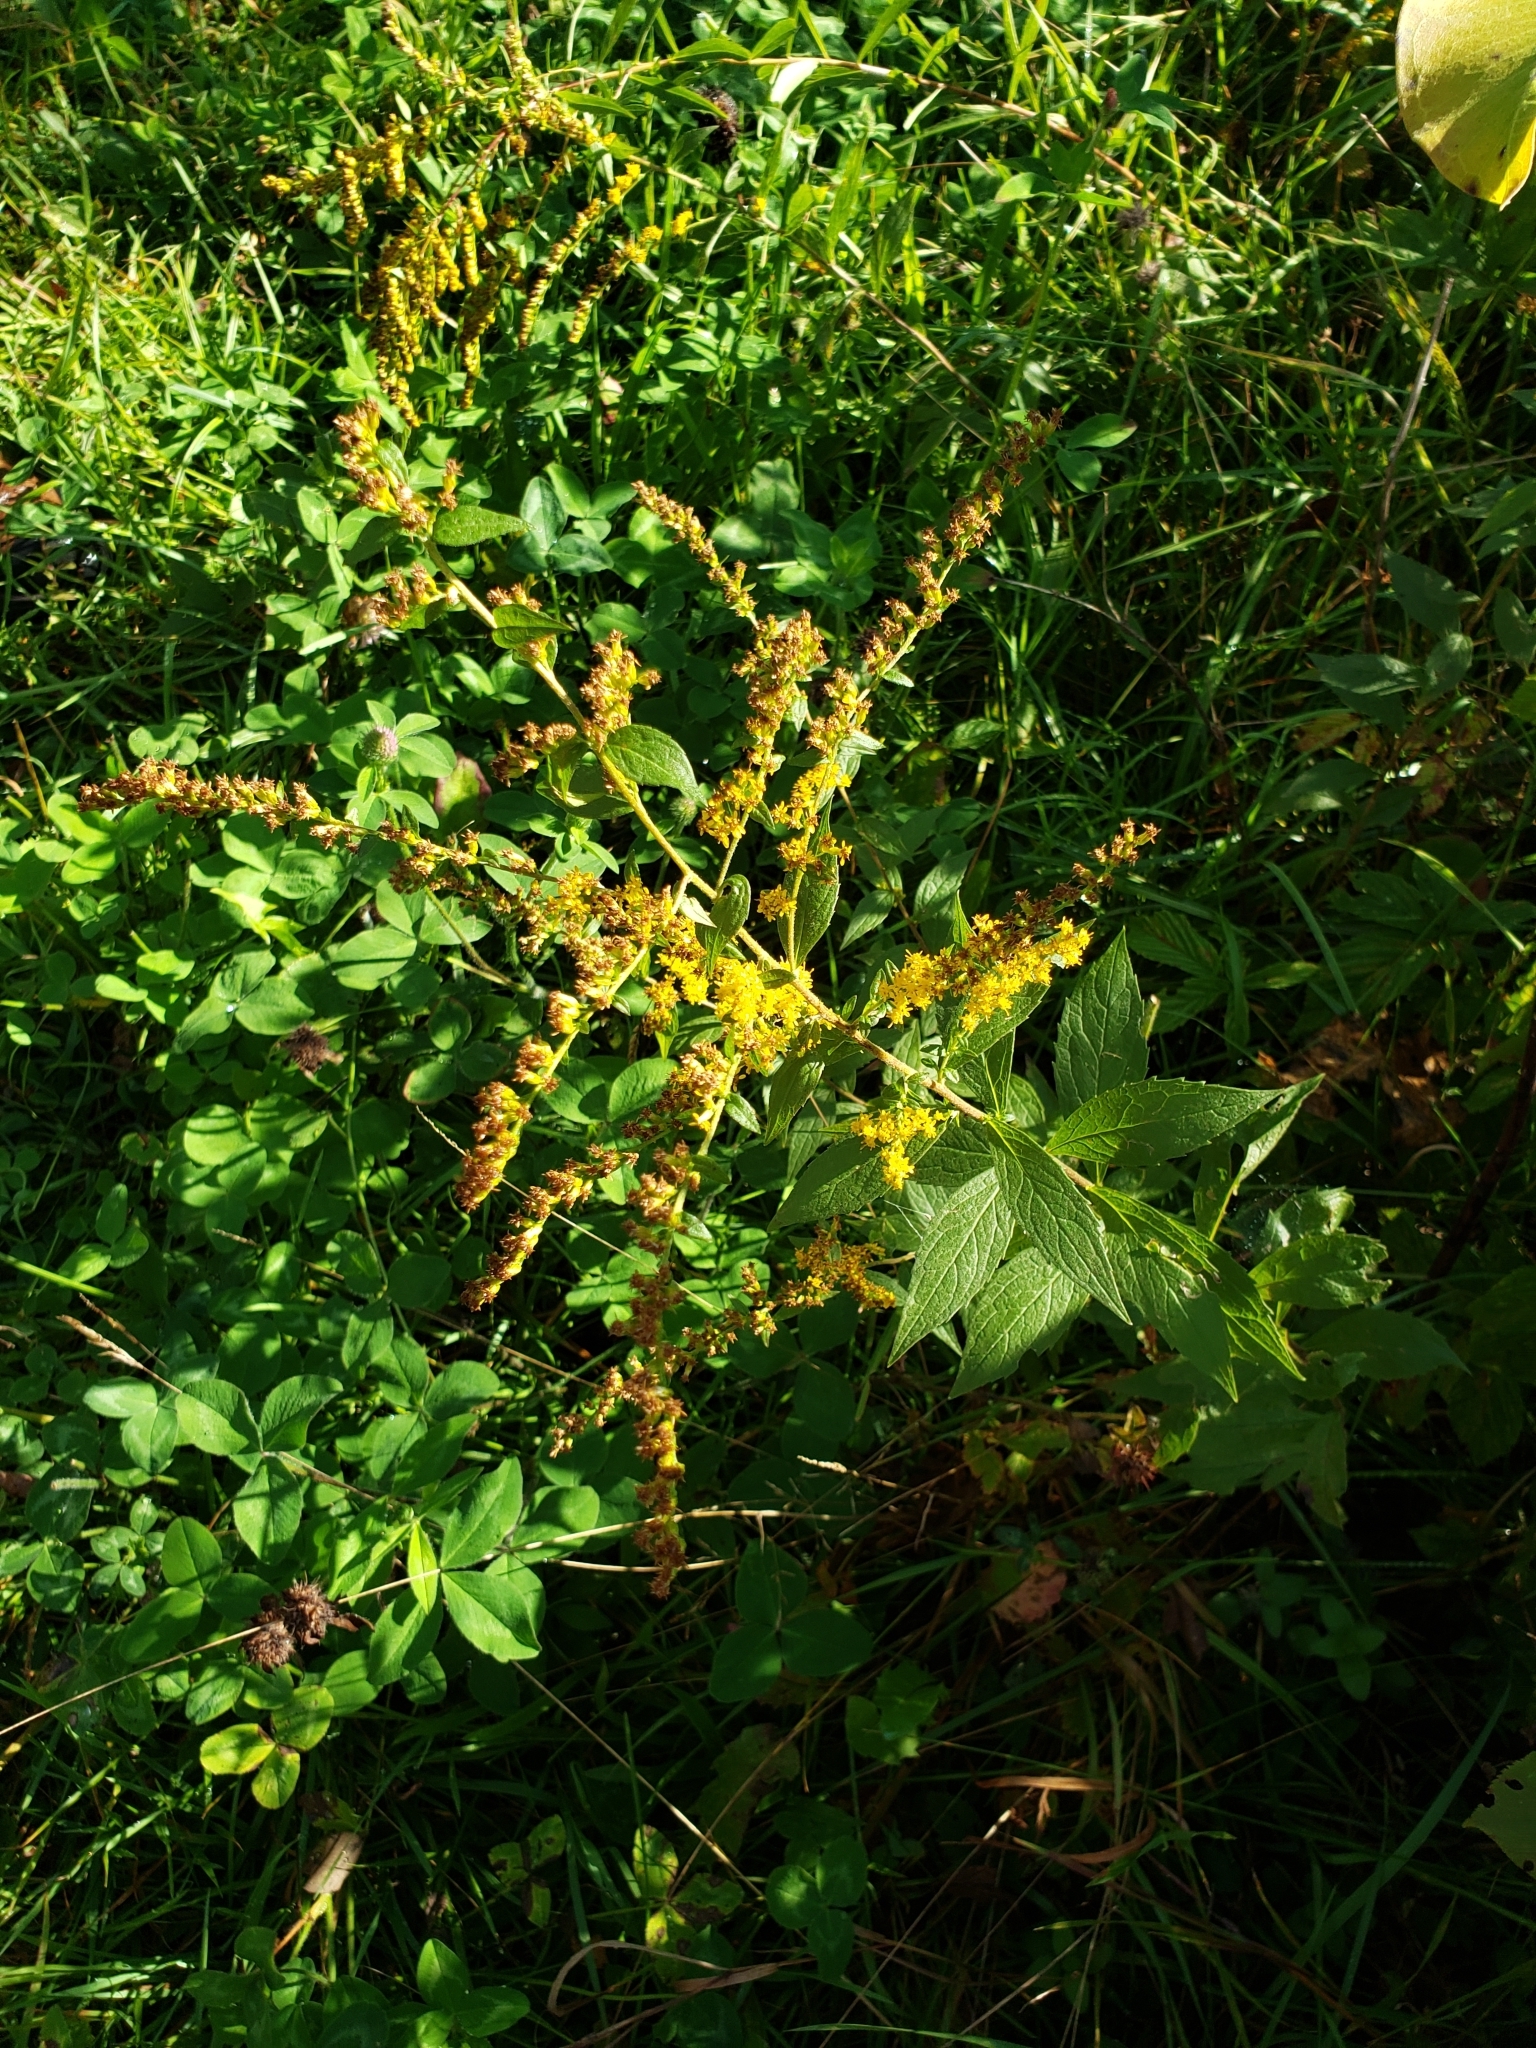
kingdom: Plantae
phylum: Tracheophyta
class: Magnoliopsida
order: Asterales
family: Asteraceae
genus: Solidago
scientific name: Solidago rugosa
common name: Rough-stemmed goldenrod
